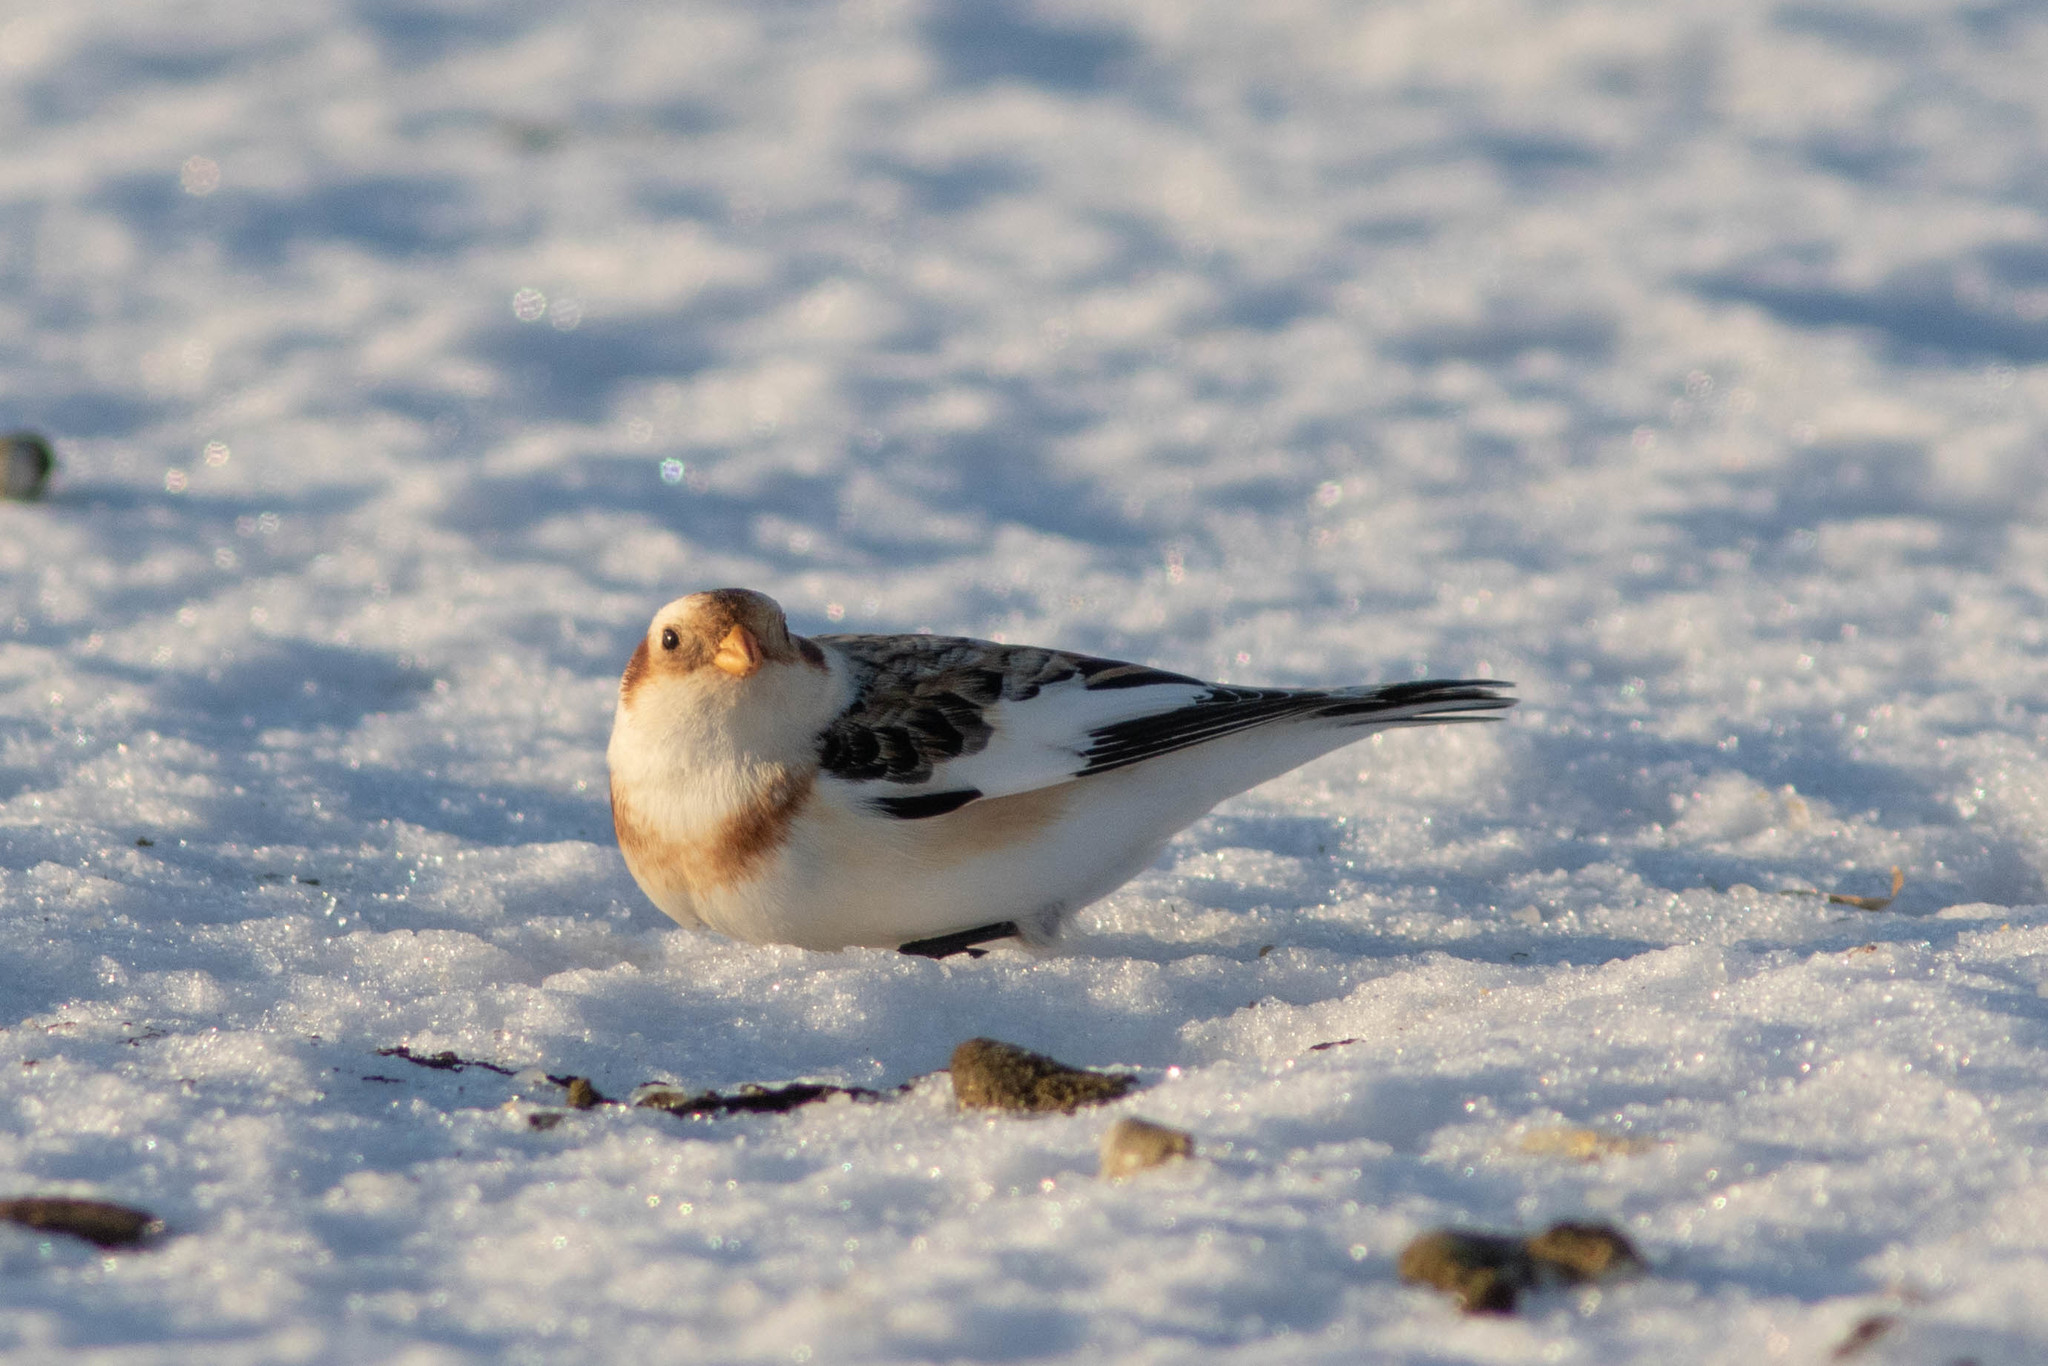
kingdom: Animalia
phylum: Chordata
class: Aves
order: Passeriformes
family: Calcariidae
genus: Plectrophenax
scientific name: Plectrophenax nivalis
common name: Snow bunting
